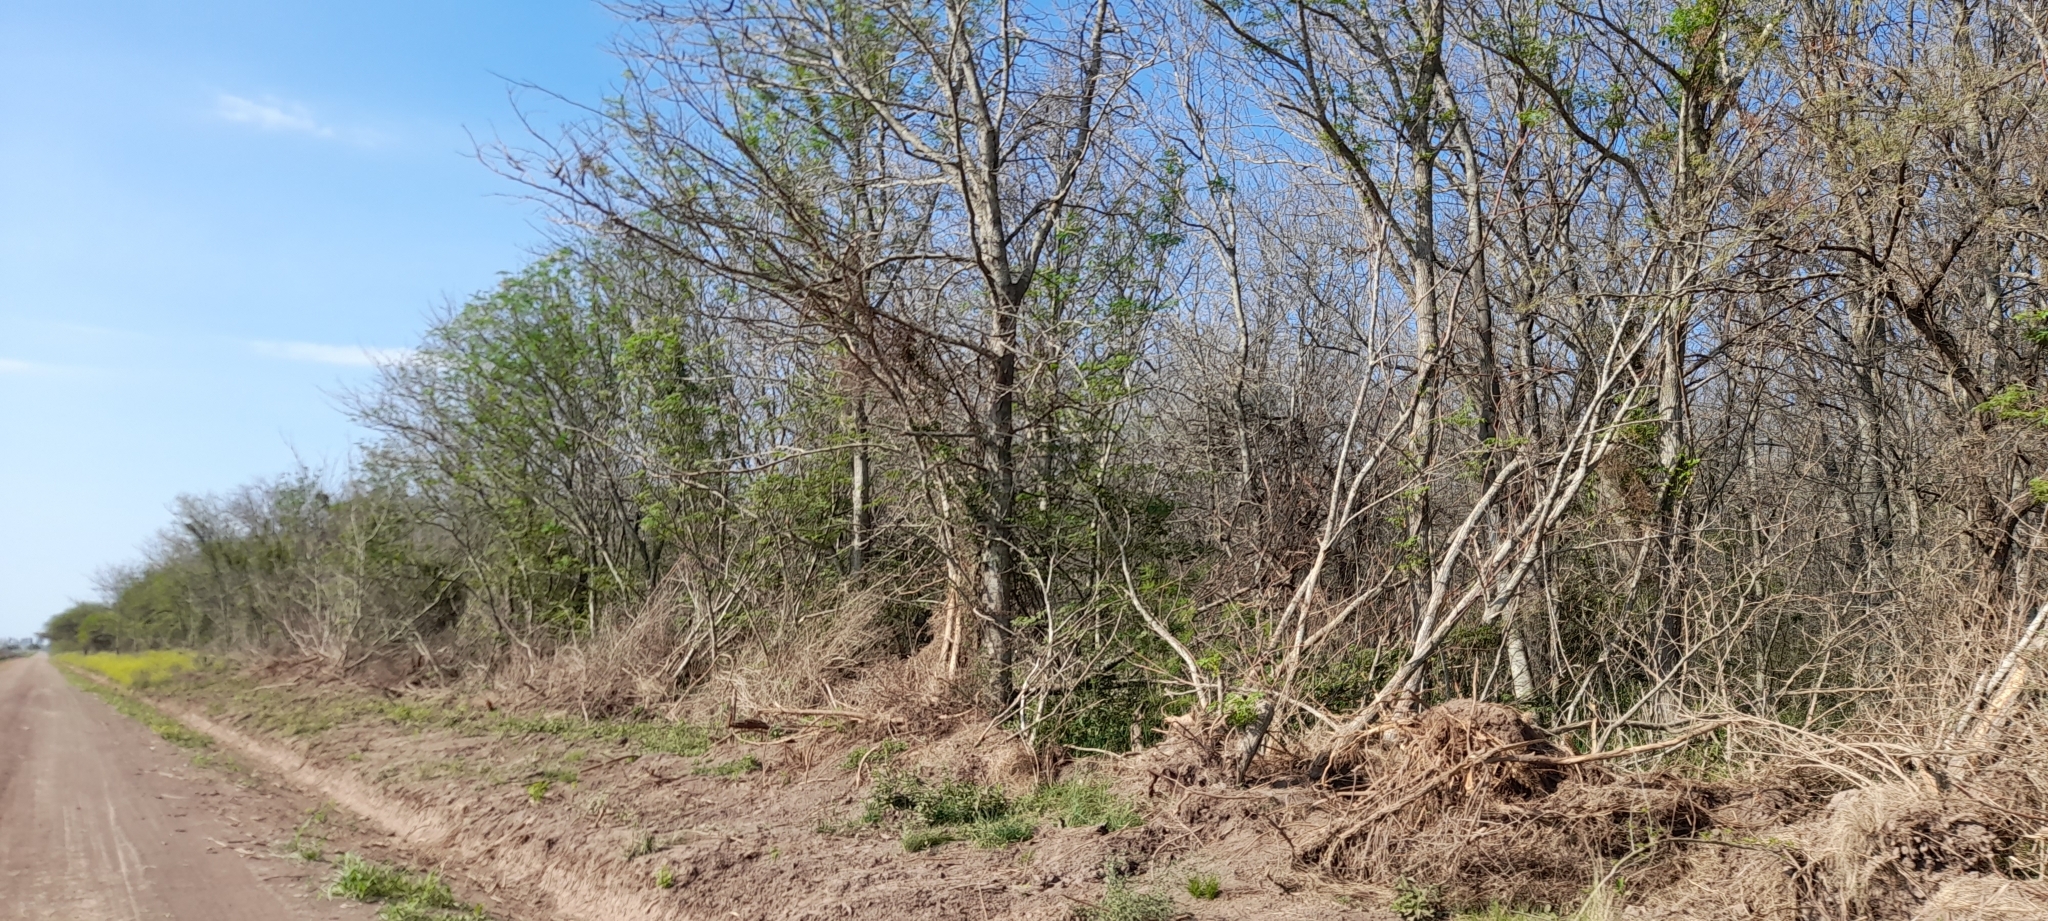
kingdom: Plantae
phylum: Tracheophyta
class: Magnoliopsida
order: Fabales
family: Fabaceae
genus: Gleditsia
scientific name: Gleditsia triacanthos
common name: Common honeylocust
